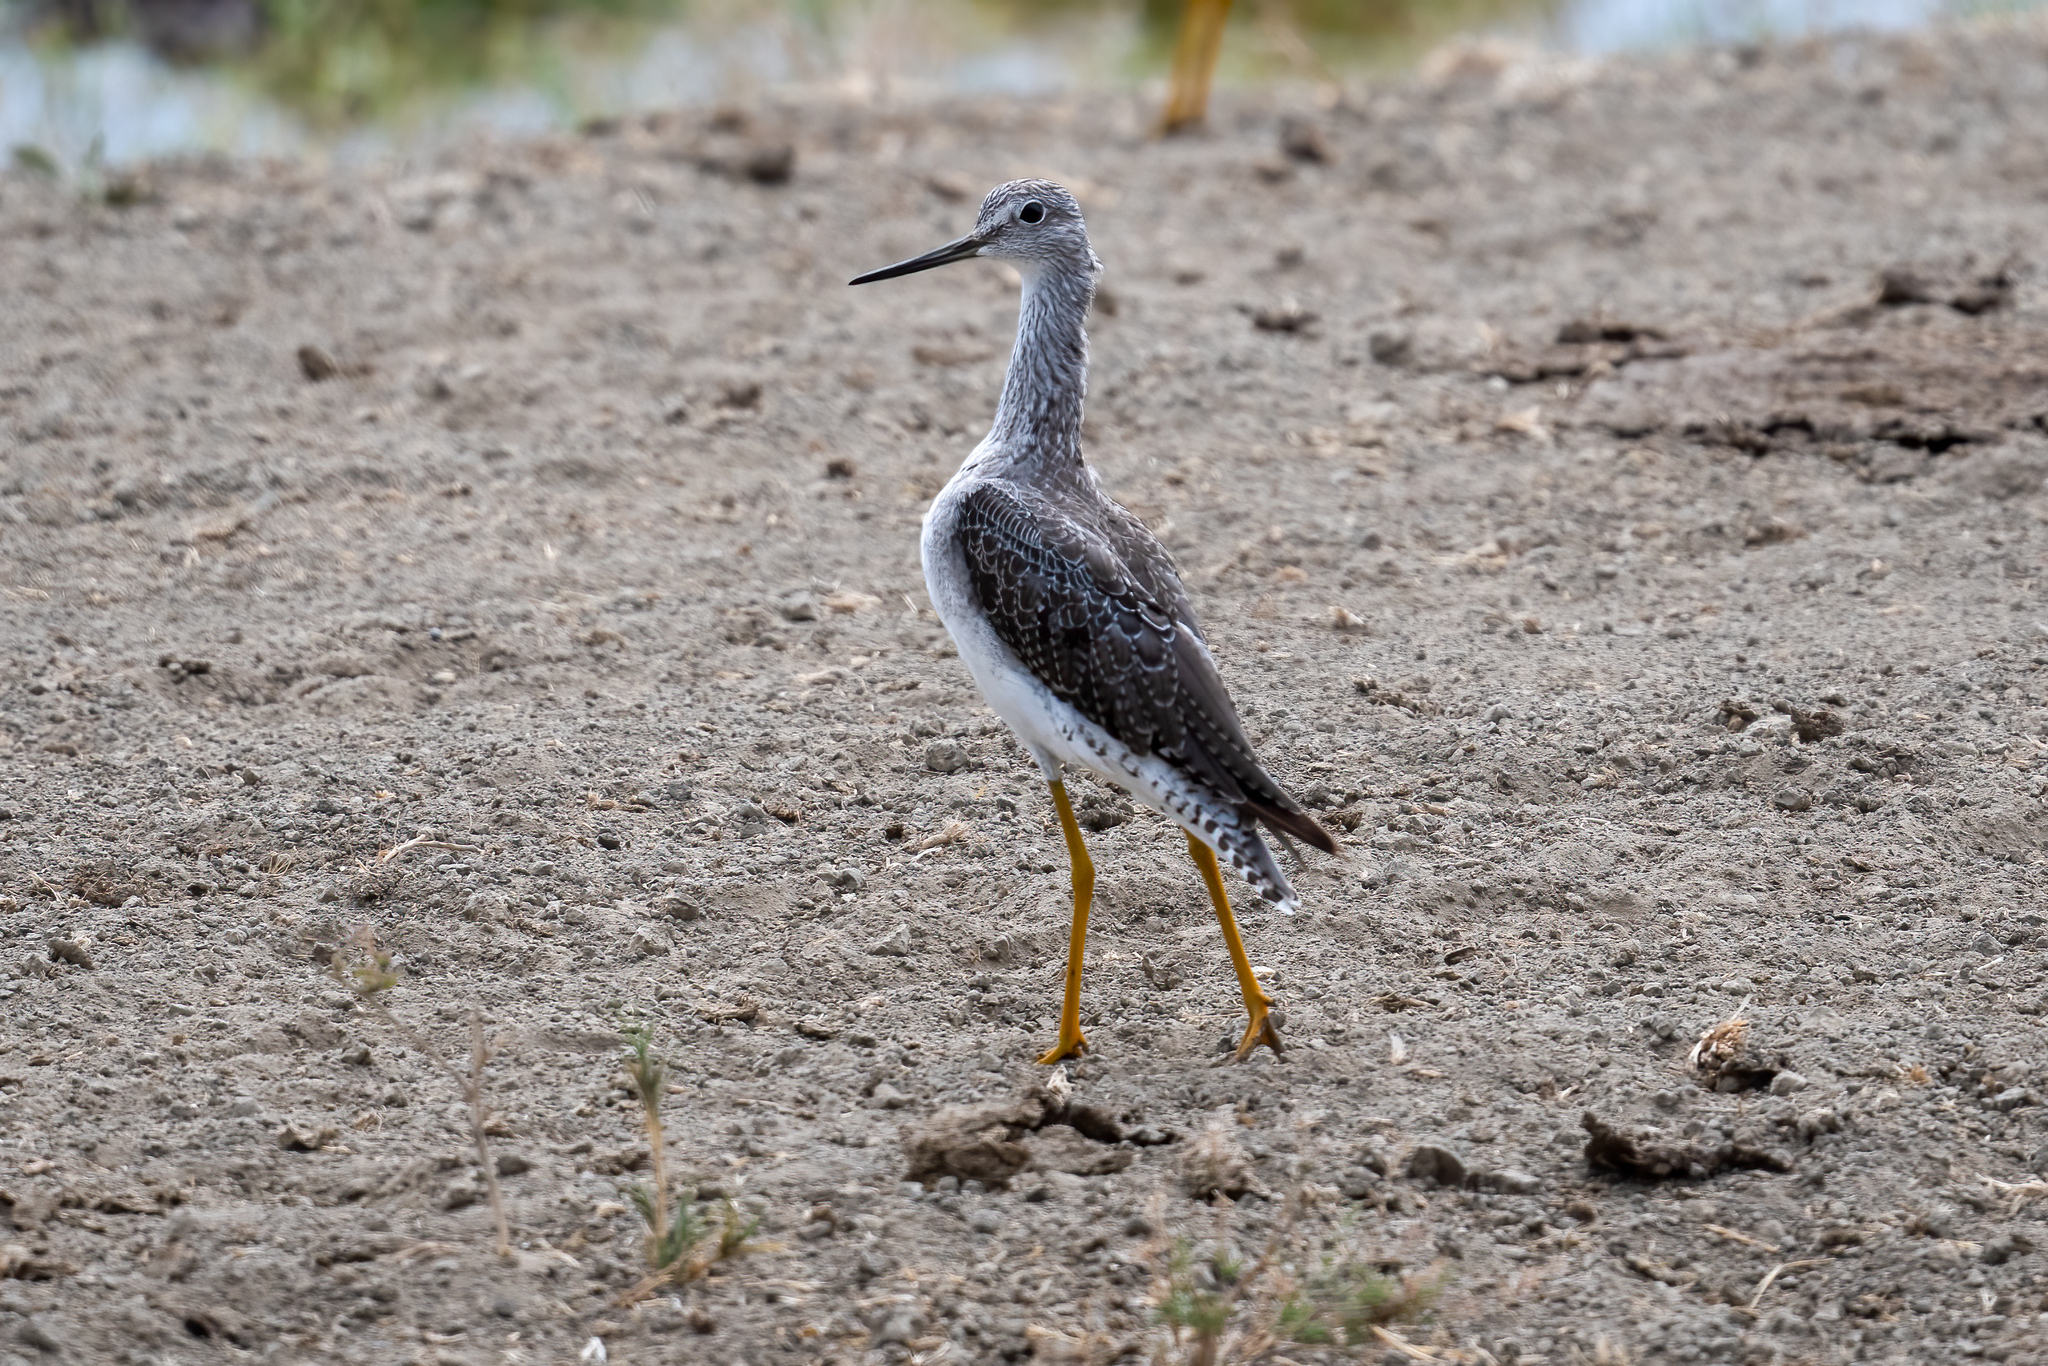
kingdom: Animalia
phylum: Chordata
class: Aves
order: Charadriiformes
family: Scolopacidae
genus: Tringa
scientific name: Tringa melanoleuca
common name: Greater yellowlegs
